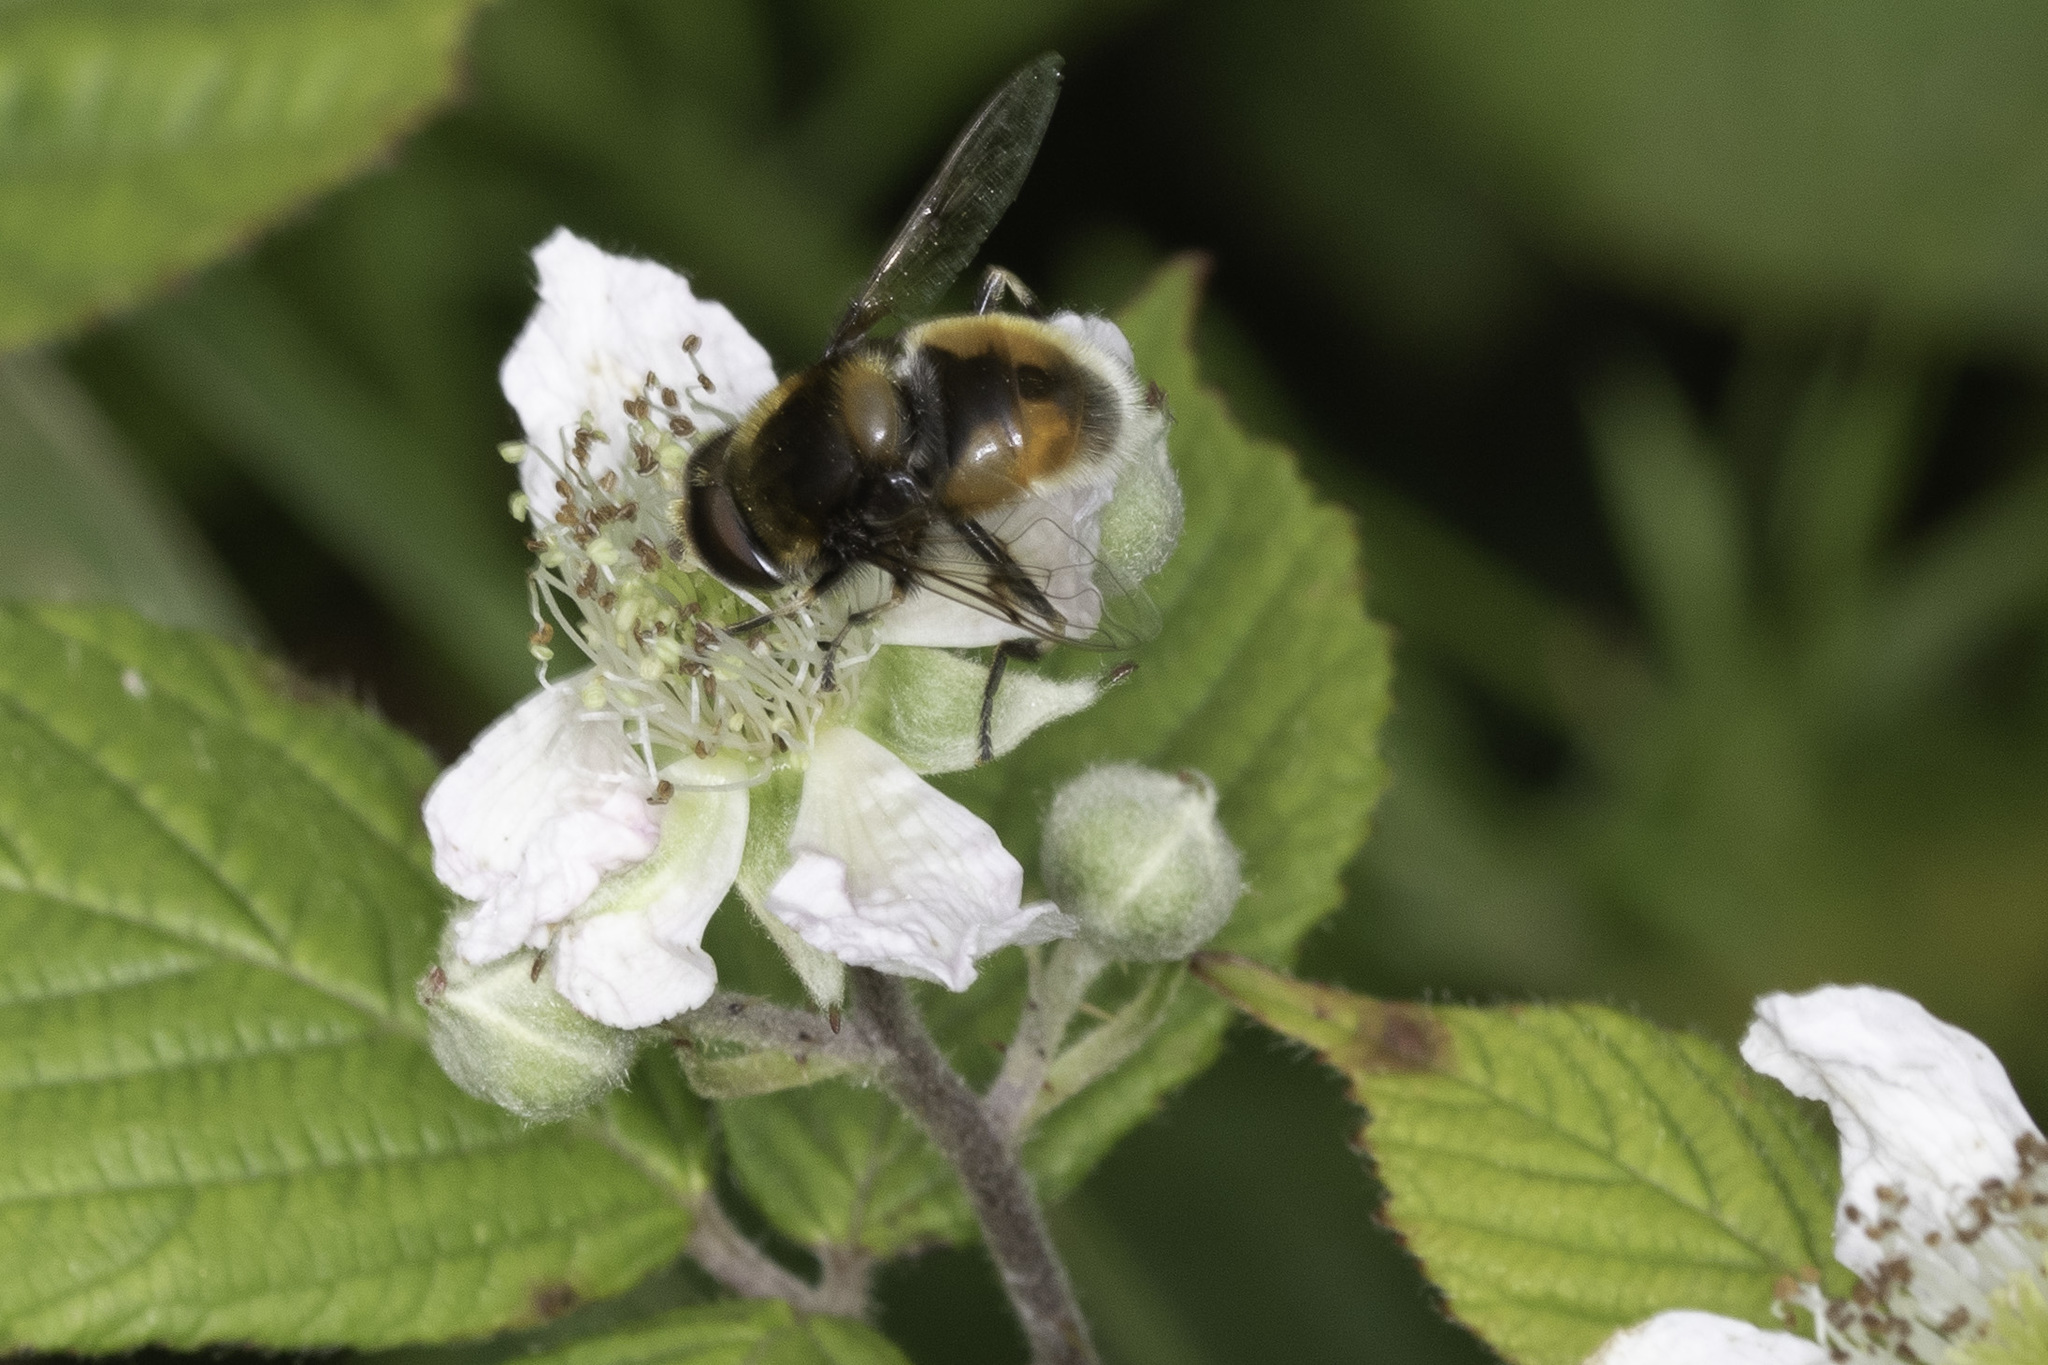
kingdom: Animalia
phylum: Arthropoda
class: Insecta
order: Diptera
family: Syrphidae
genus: Eristalis
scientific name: Eristalis intricaria
